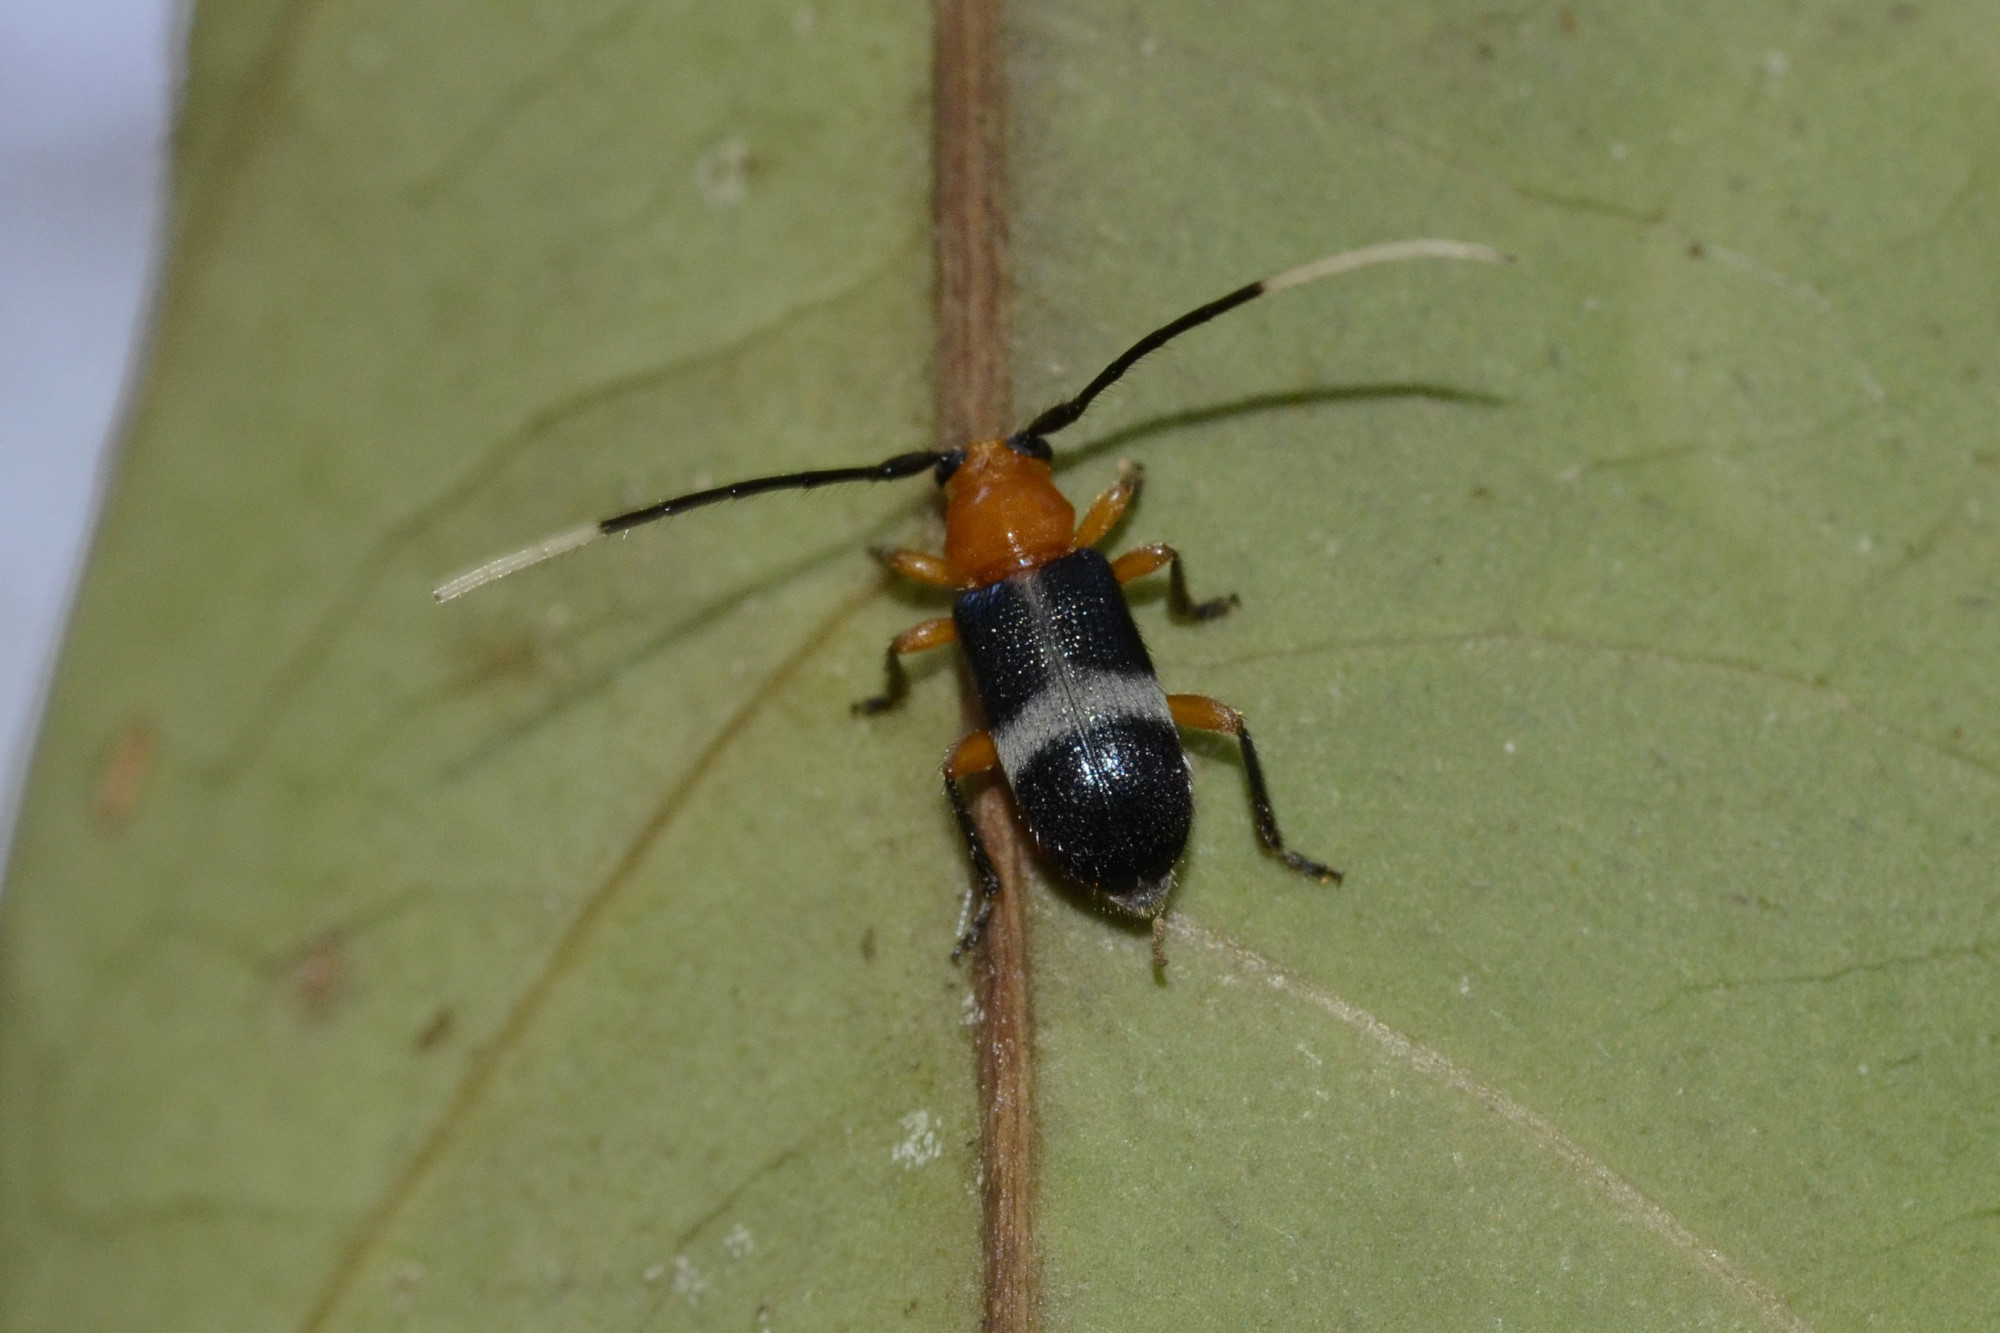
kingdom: Animalia
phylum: Arthropoda
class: Insecta
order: Coleoptera
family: Cerambycidae
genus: Callia
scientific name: Callia leucozonata
